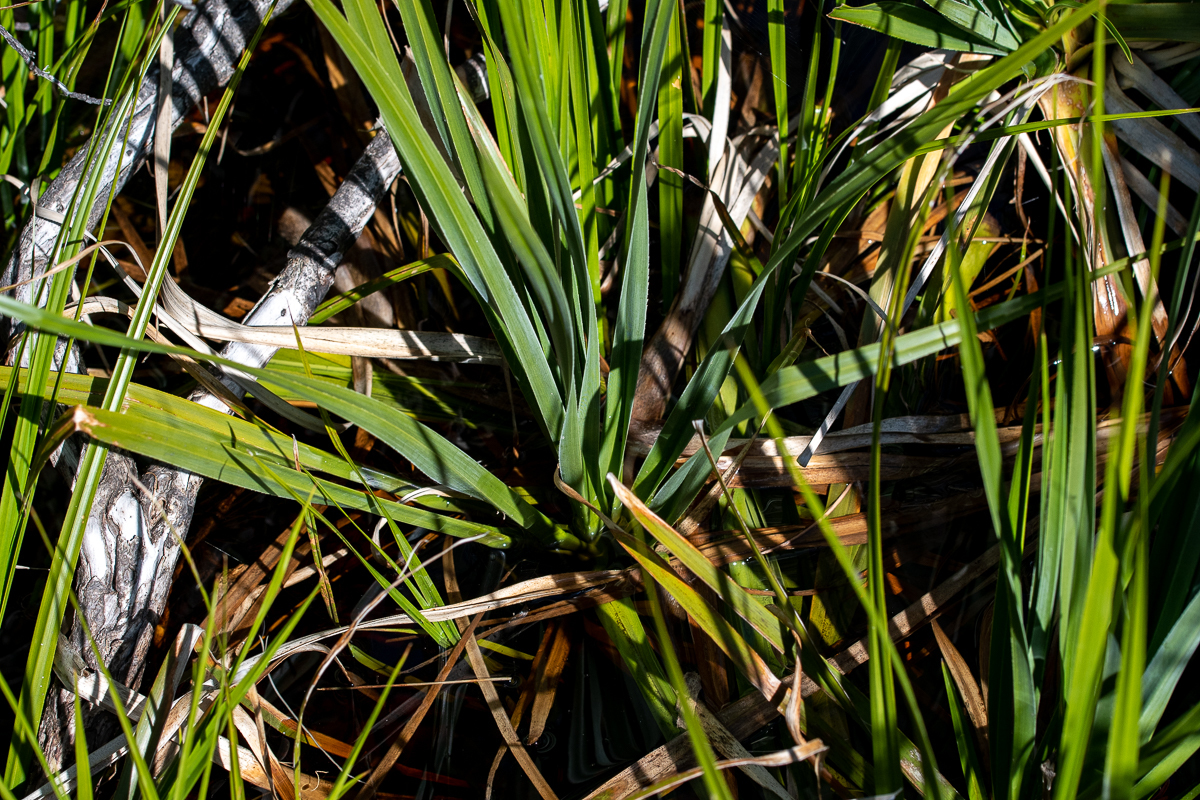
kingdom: Plantae
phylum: Tracheophyta
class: Liliopsida
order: Poales
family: Thurniaceae
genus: Prionium
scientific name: Prionium serratum
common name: Palmiet
